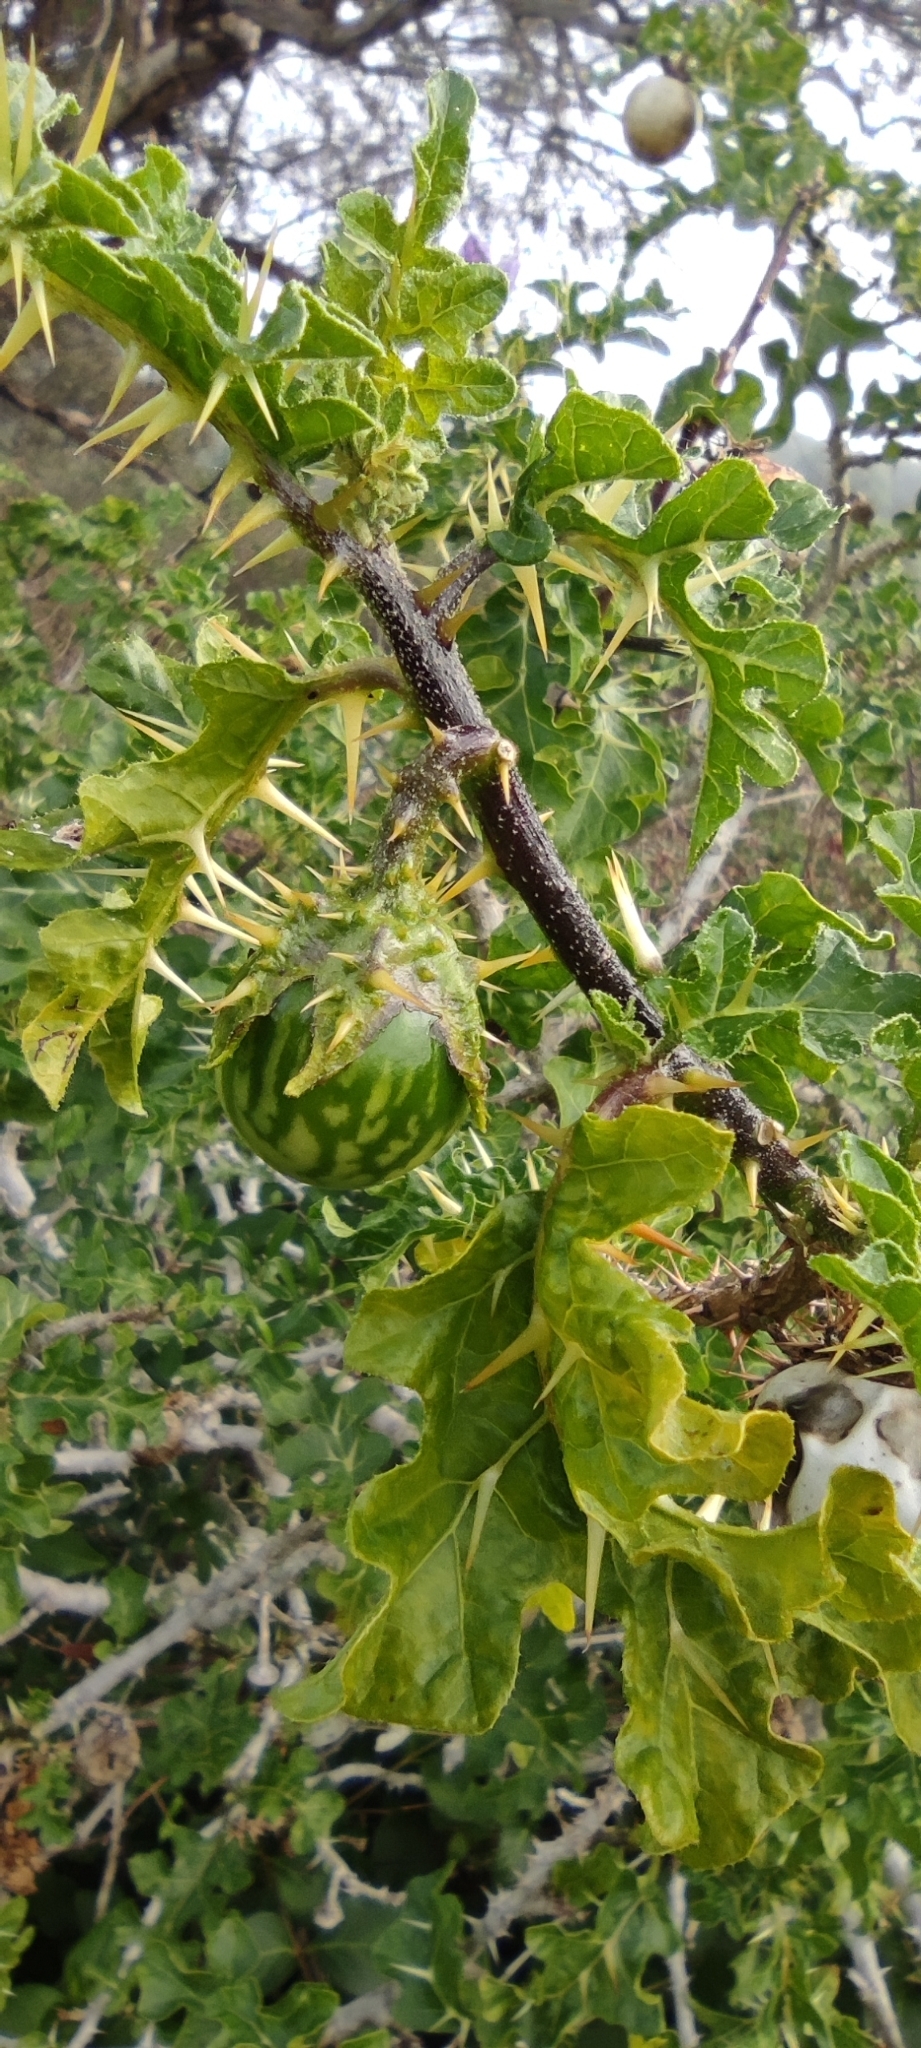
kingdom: Plantae
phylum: Tracheophyta
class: Magnoliopsida
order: Solanales
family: Solanaceae
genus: Solanum
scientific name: Solanum linnaeanum
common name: Nightshade
